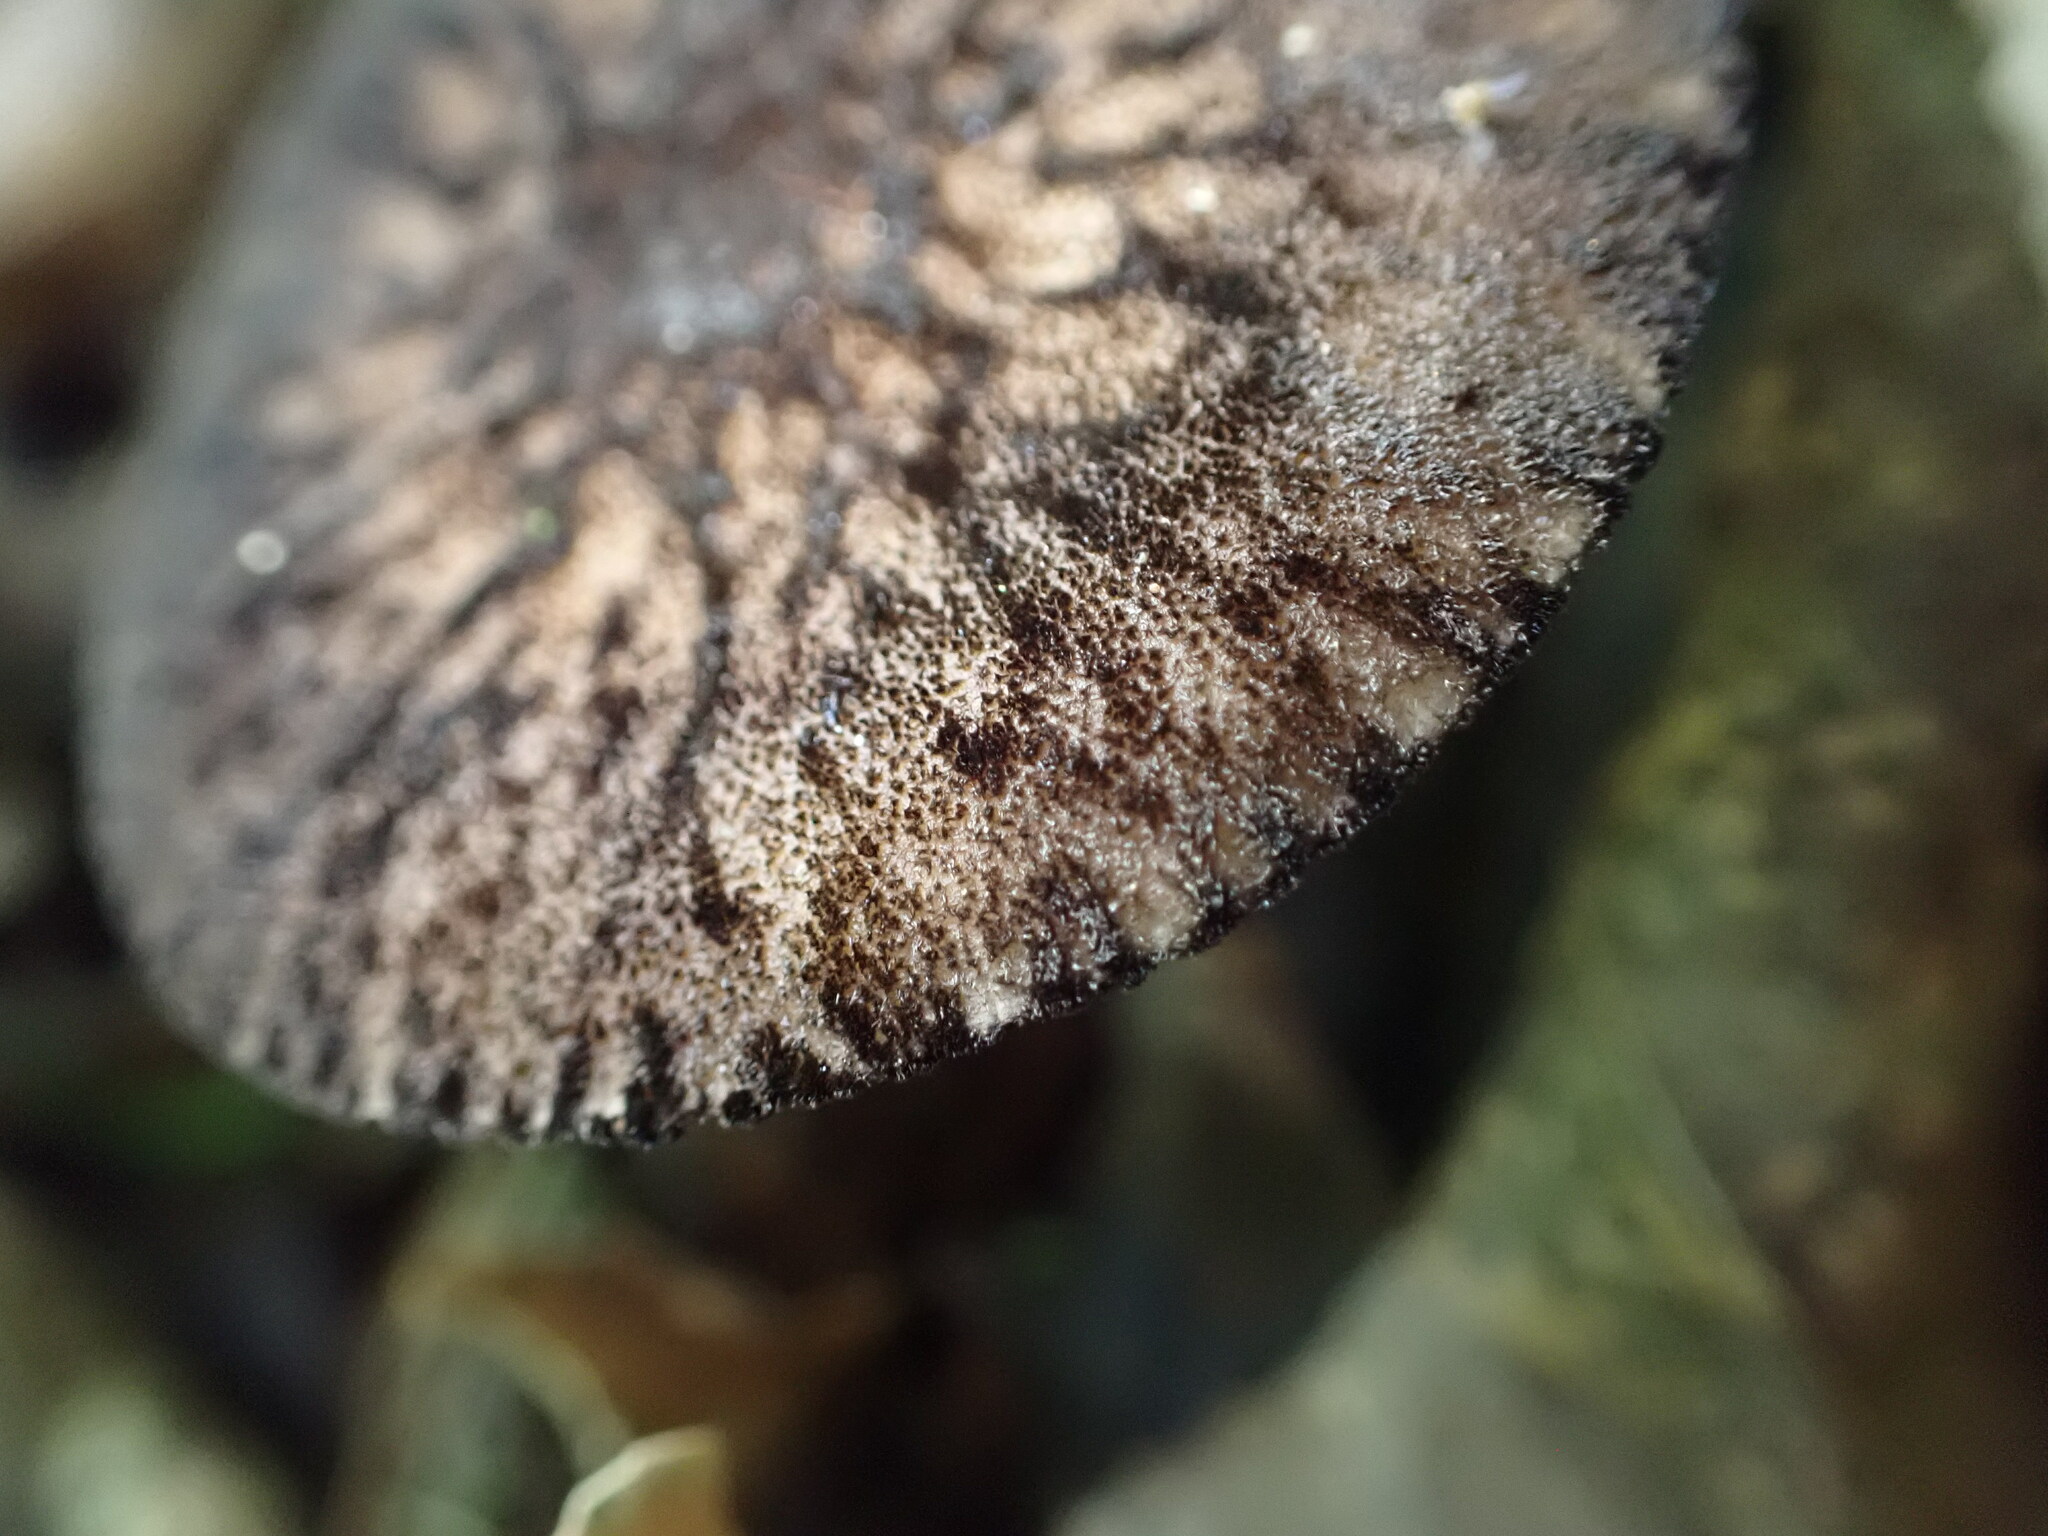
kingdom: Fungi
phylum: Basidiomycota
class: Agaricomycetes
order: Agaricales
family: Pluteaceae
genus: Pluteus
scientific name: Pluteus perroseus
